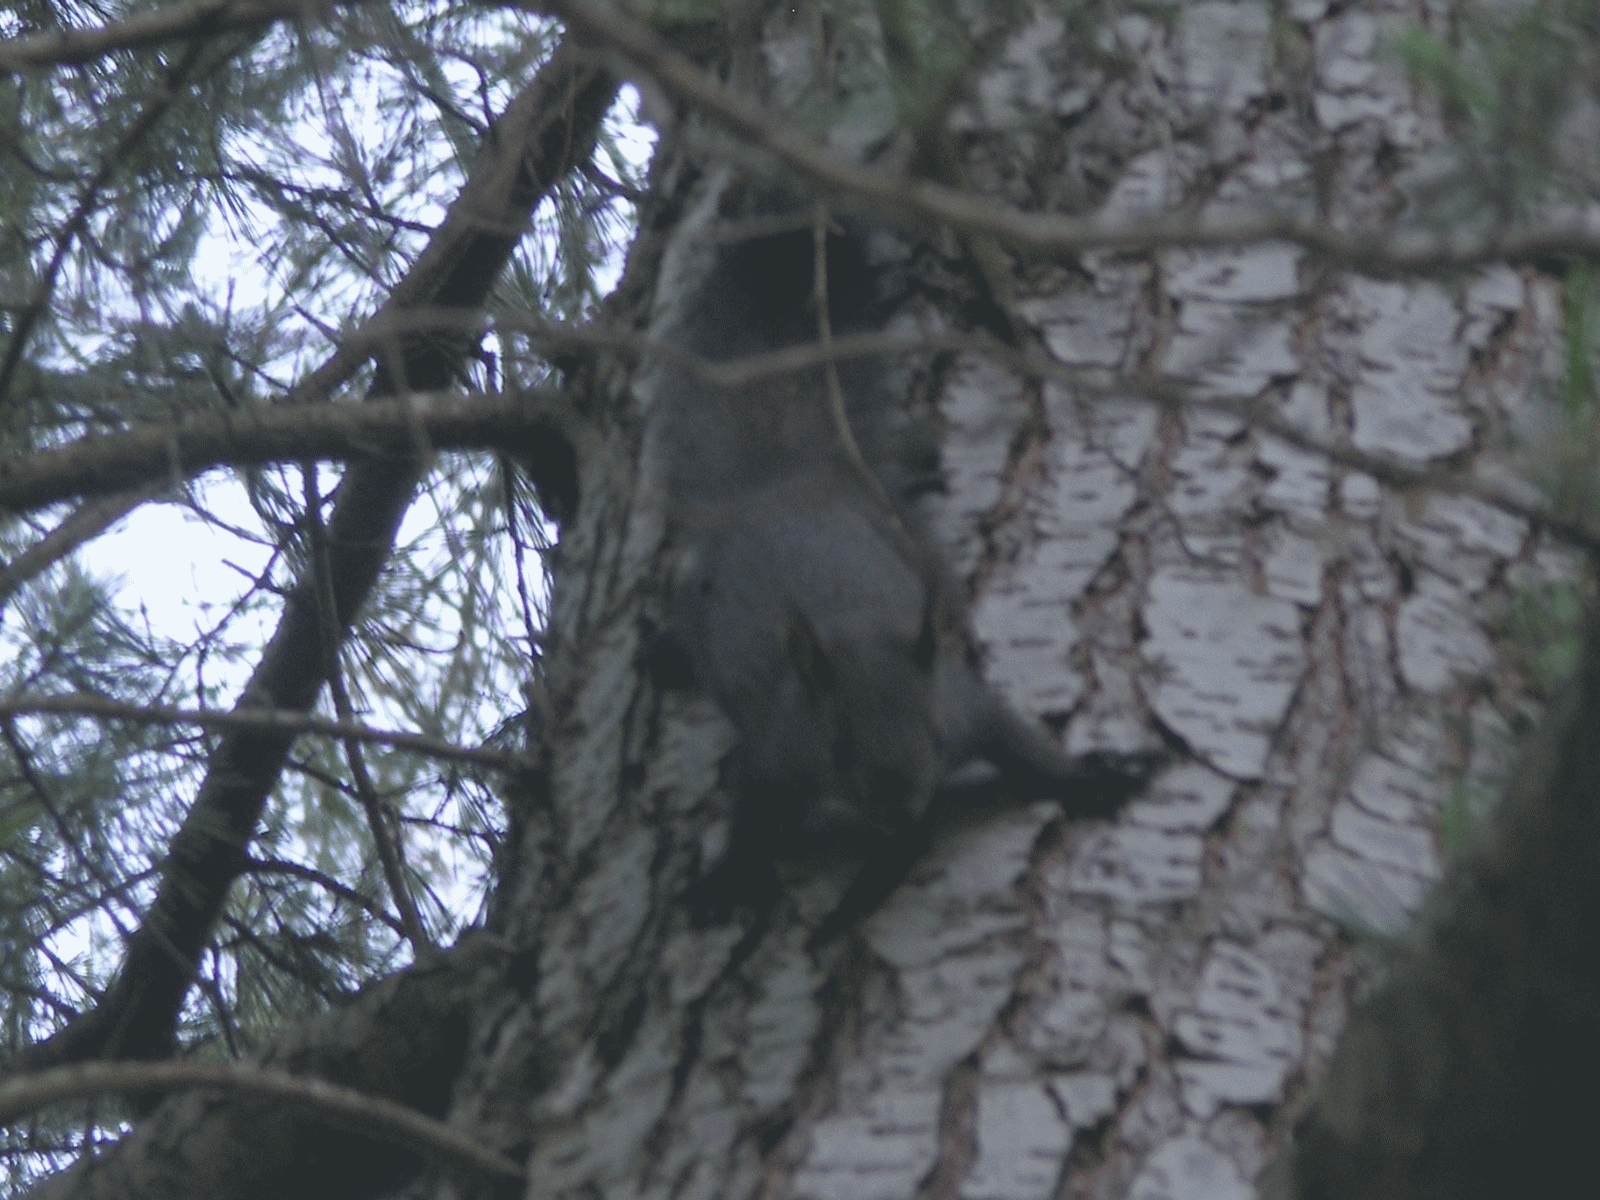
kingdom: Animalia
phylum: Chordata
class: Mammalia
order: Rodentia
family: Sciuridae
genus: Sciurus
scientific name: Sciurus vulgaris
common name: Eurasian red squirrel
